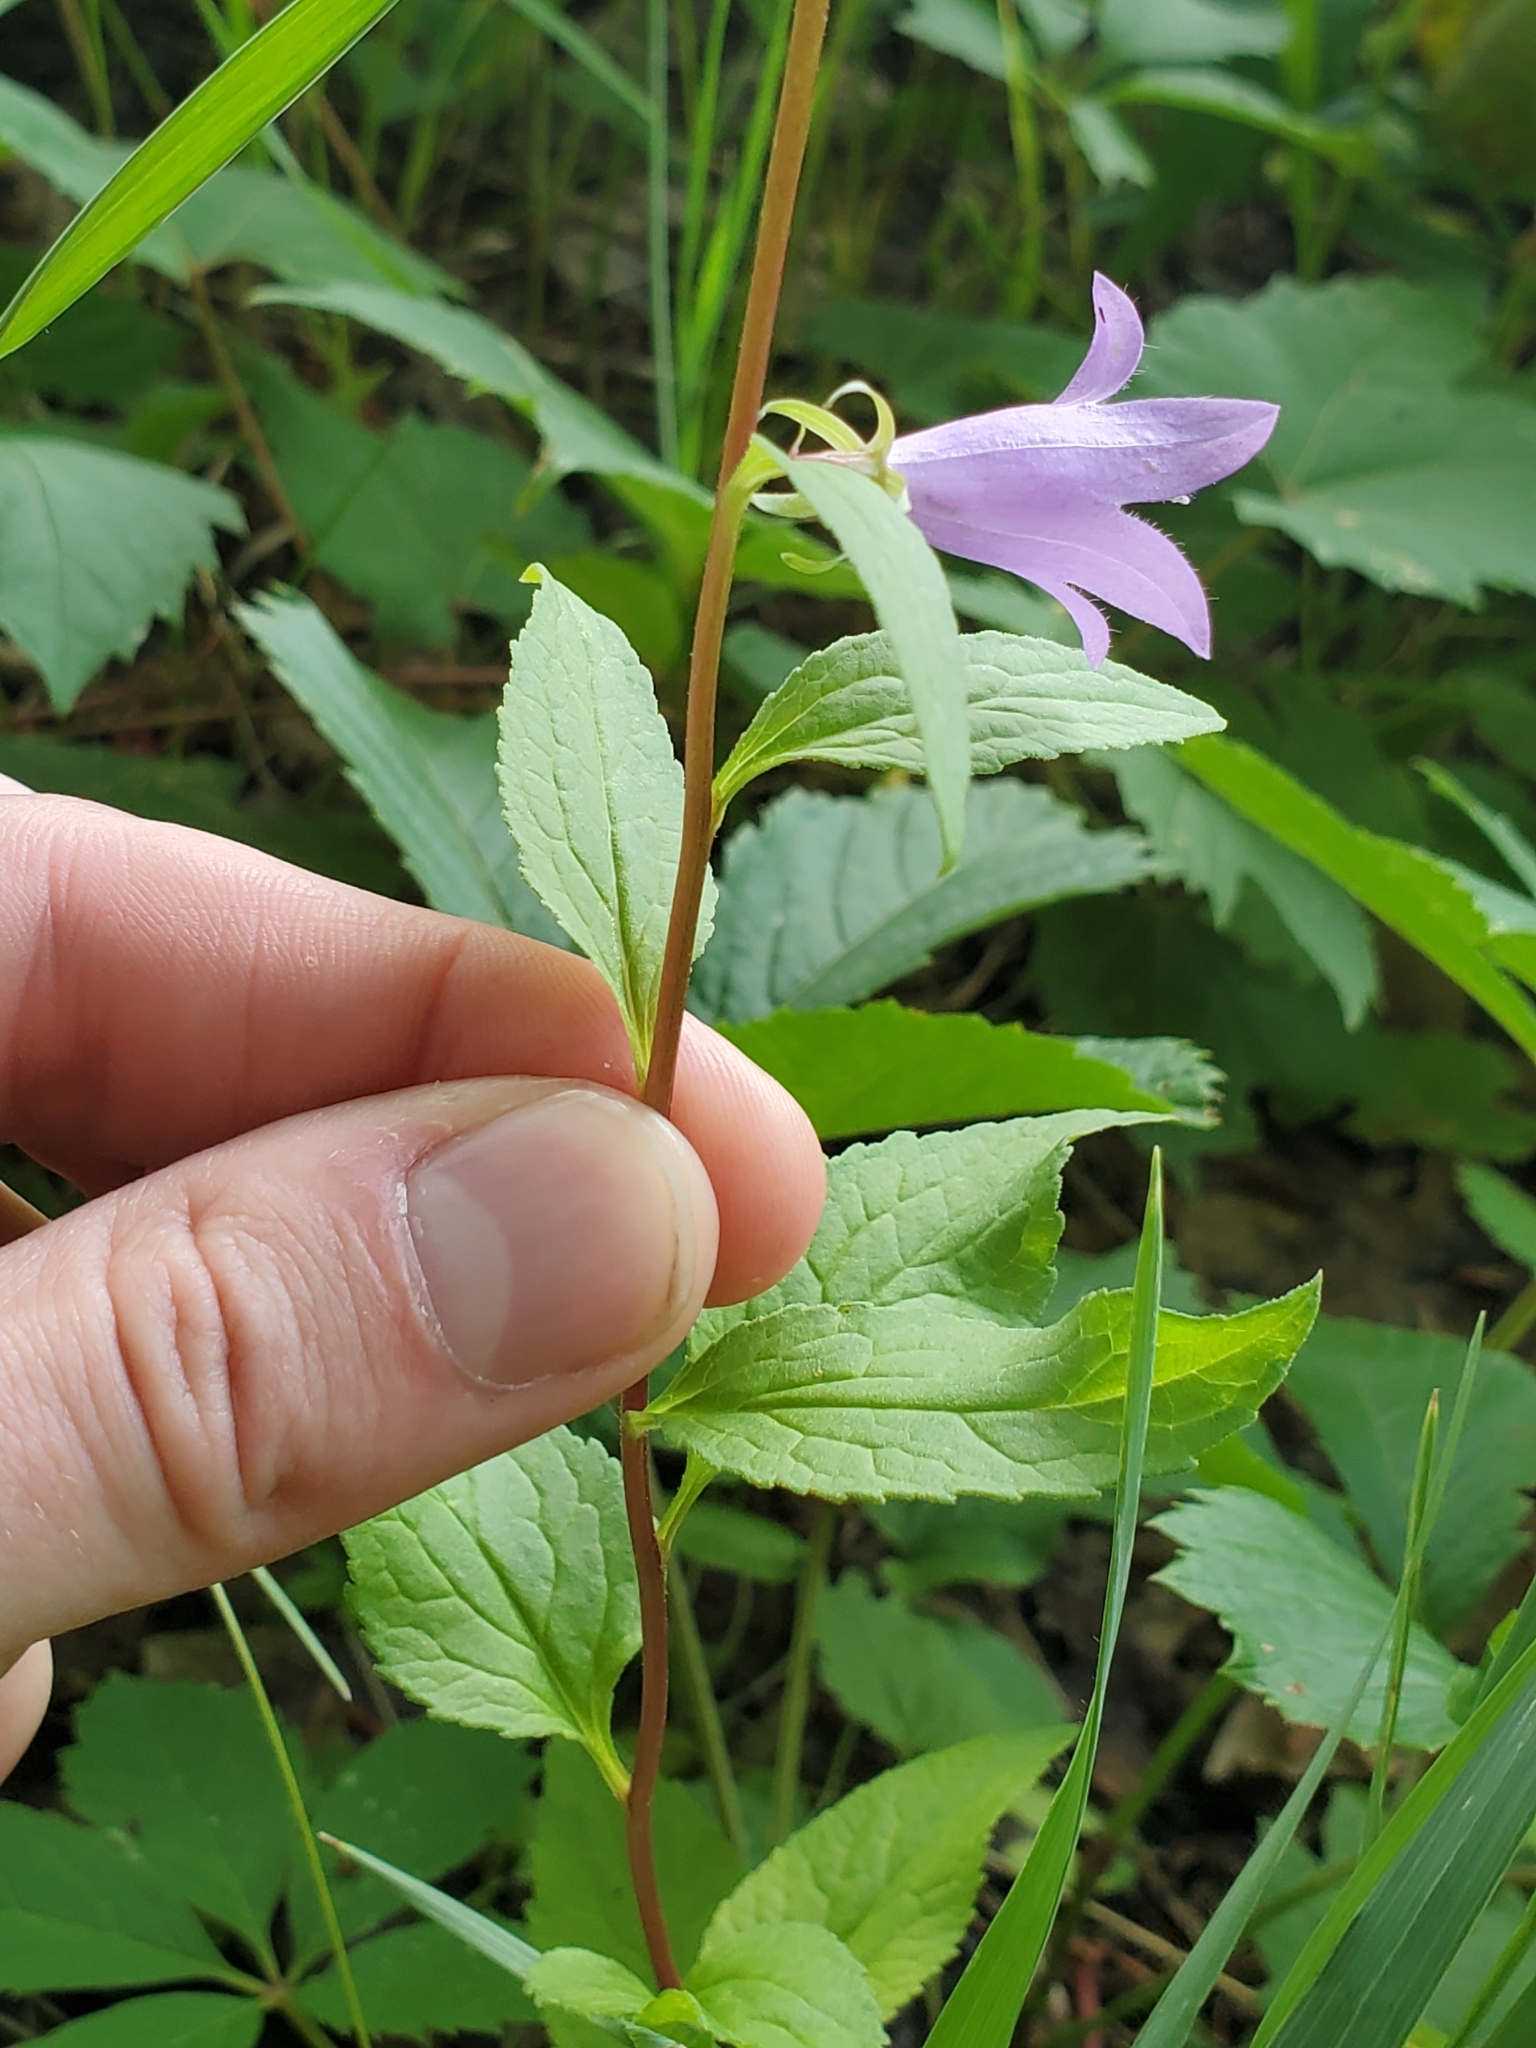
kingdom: Plantae
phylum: Tracheophyta
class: Magnoliopsida
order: Asterales
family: Campanulaceae
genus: Campanula
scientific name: Campanula rapunculoides
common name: Creeping bellflower
